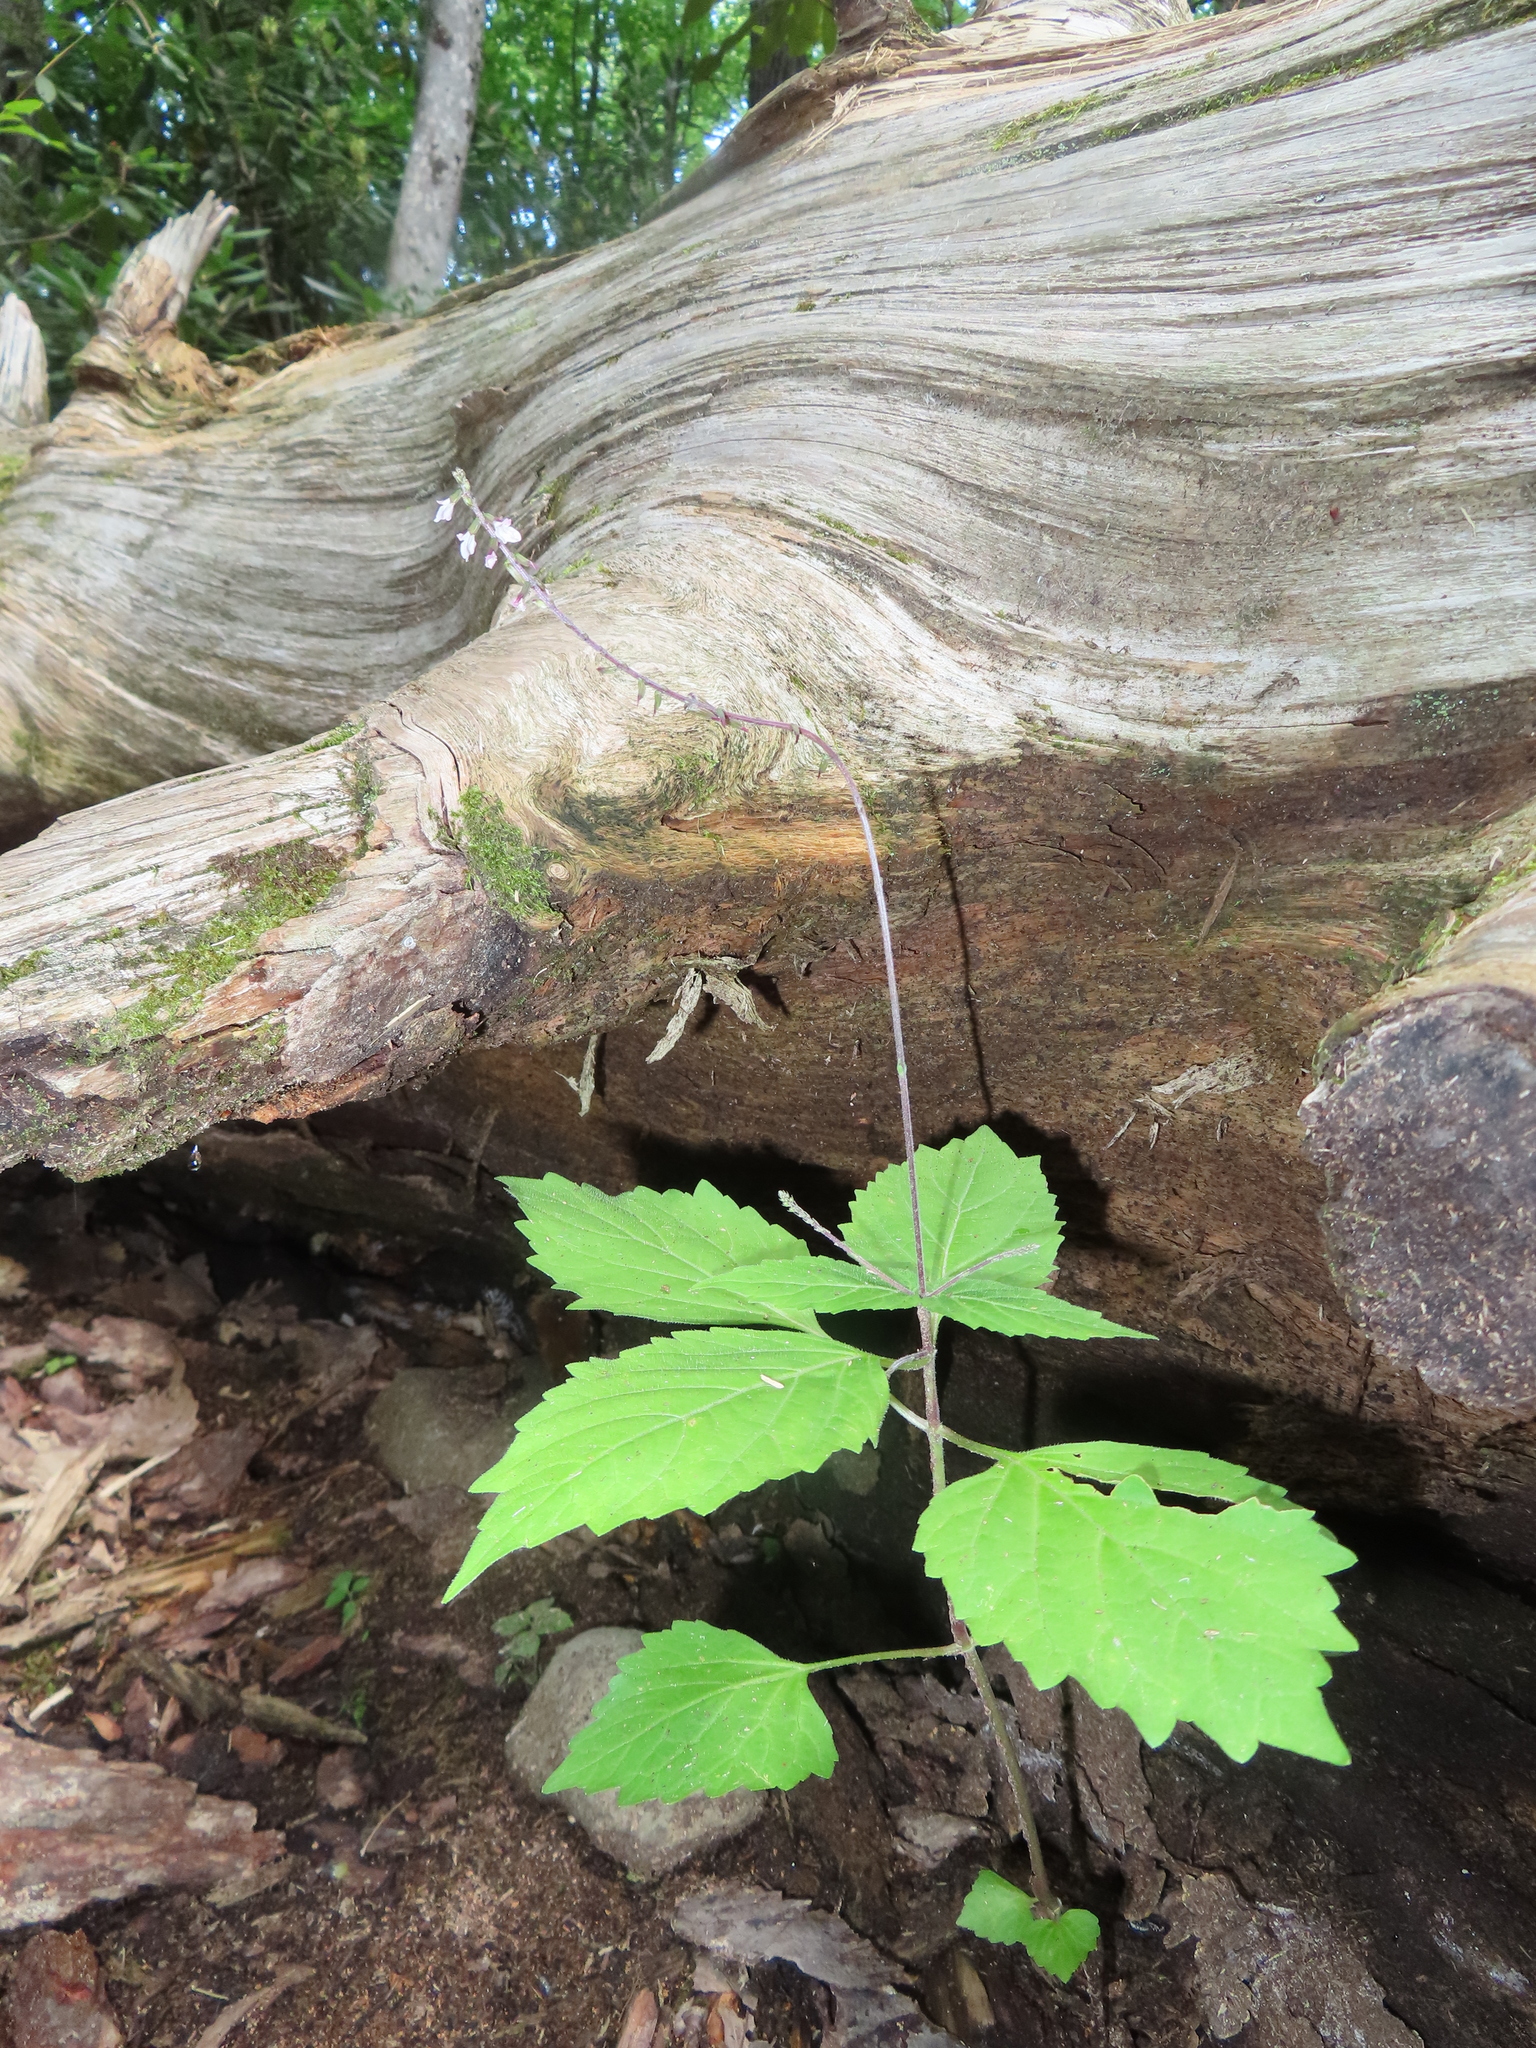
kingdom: Plantae
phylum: Tracheophyta
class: Magnoliopsida
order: Lamiales
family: Phrymaceae
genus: Phryma
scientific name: Phryma leptostachya
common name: American lopseed
